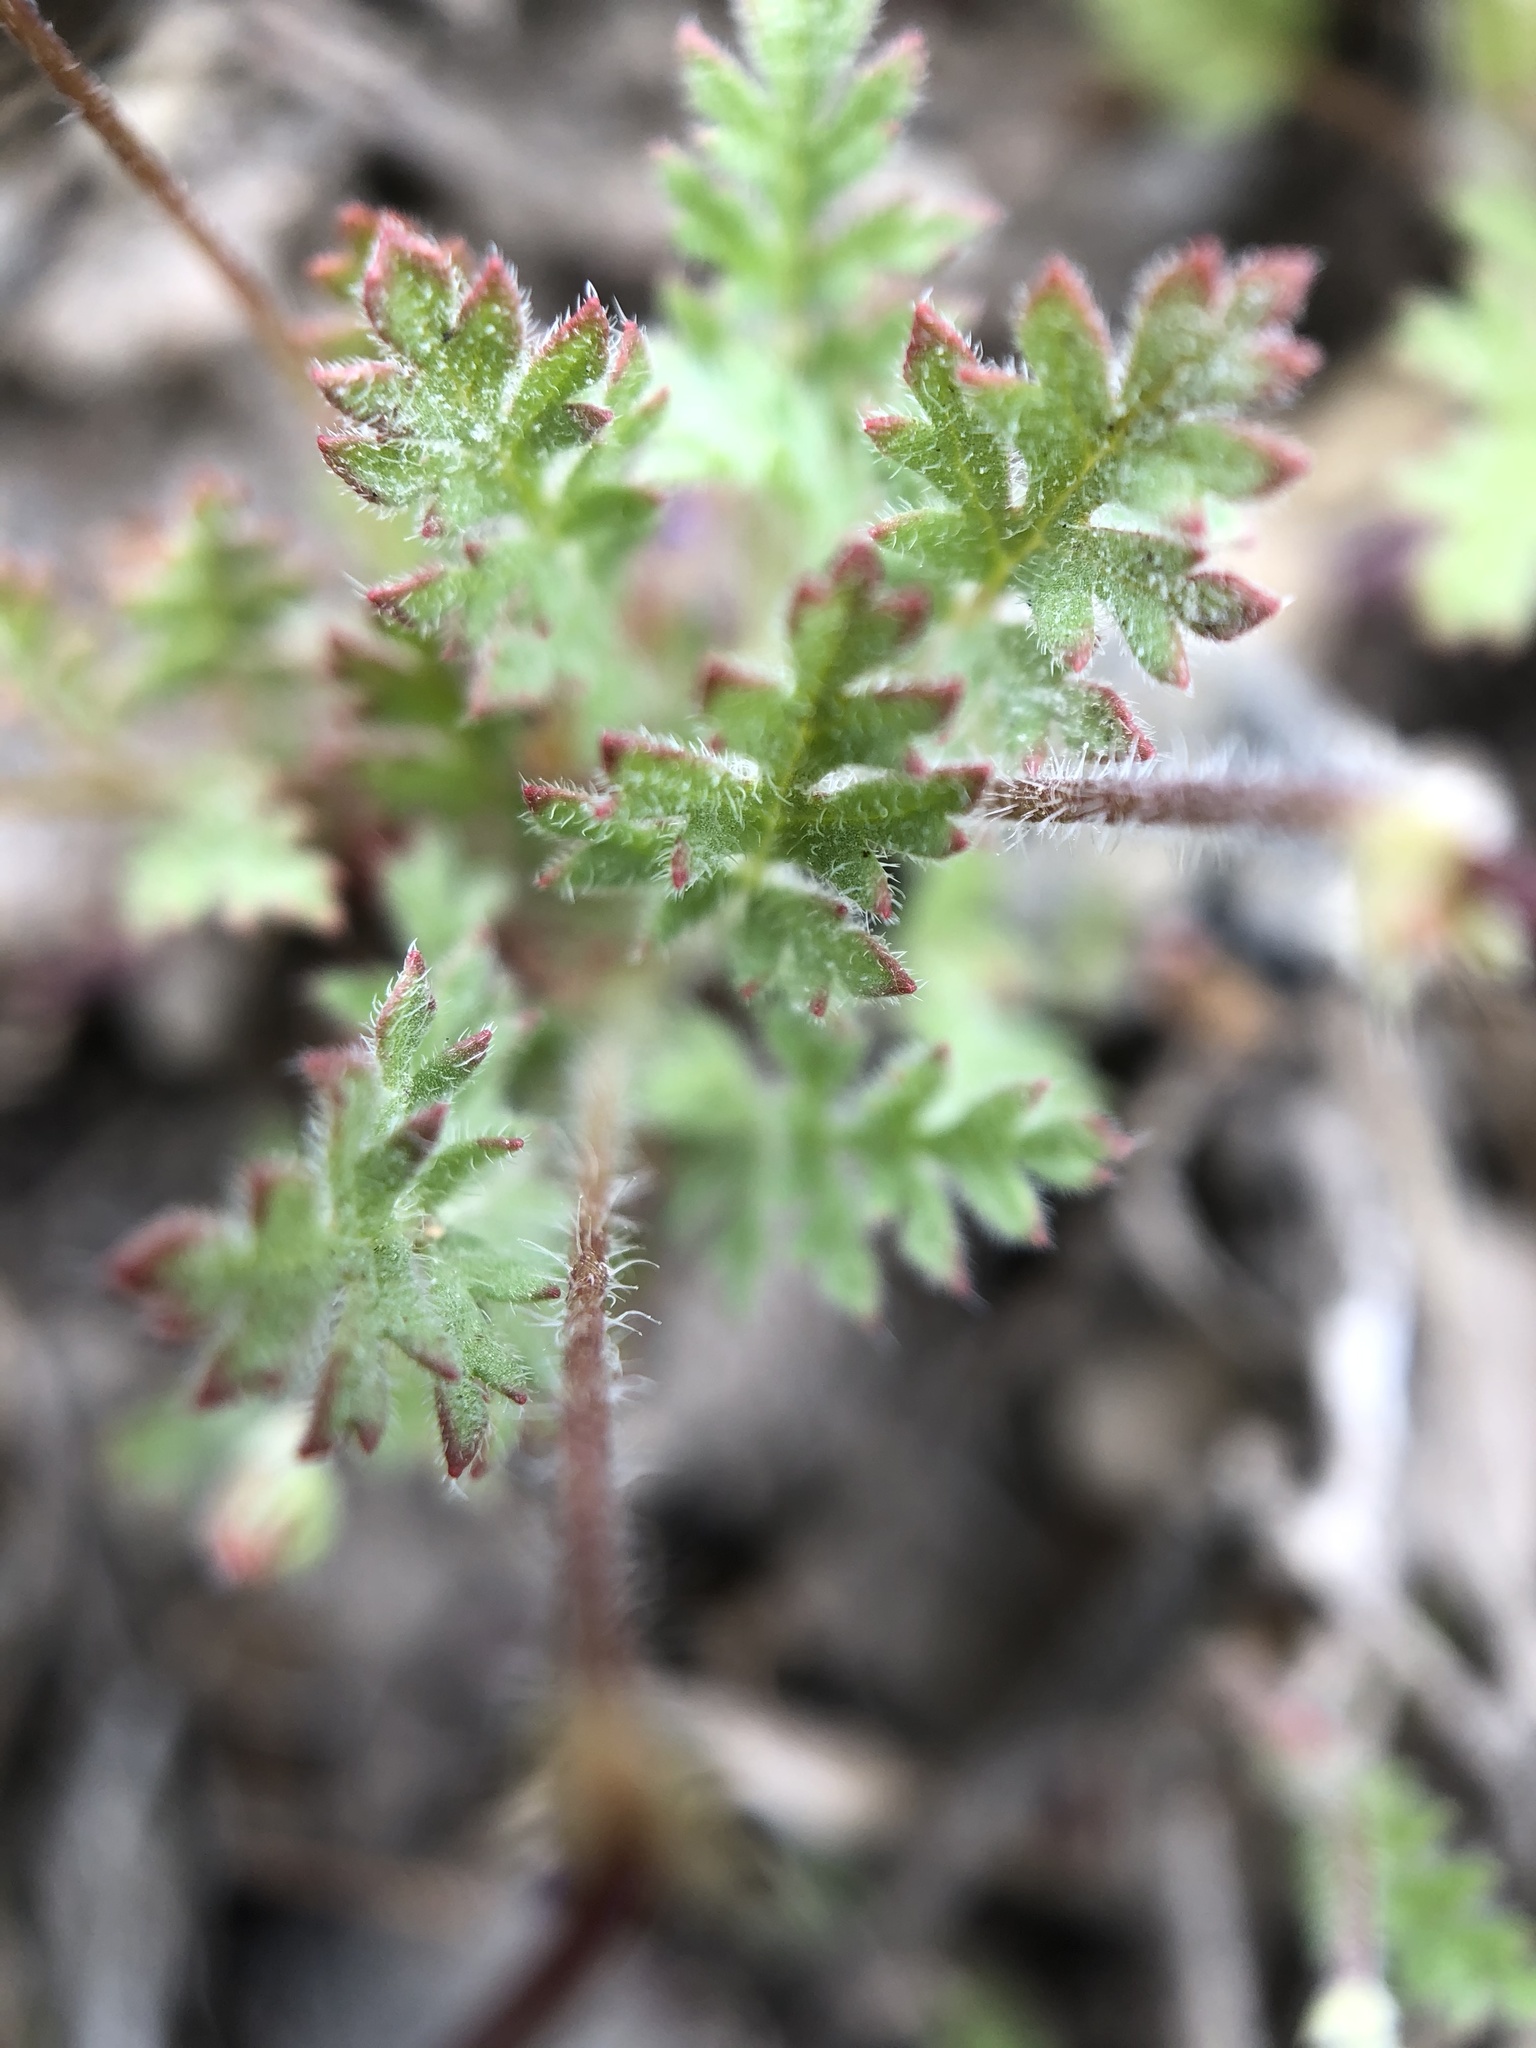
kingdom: Plantae
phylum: Tracheophyta
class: Magnoliopsida
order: Geraniales
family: Geraniaceae
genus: Erodium
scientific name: Erodium cicutarium
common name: Common stork's-bill
